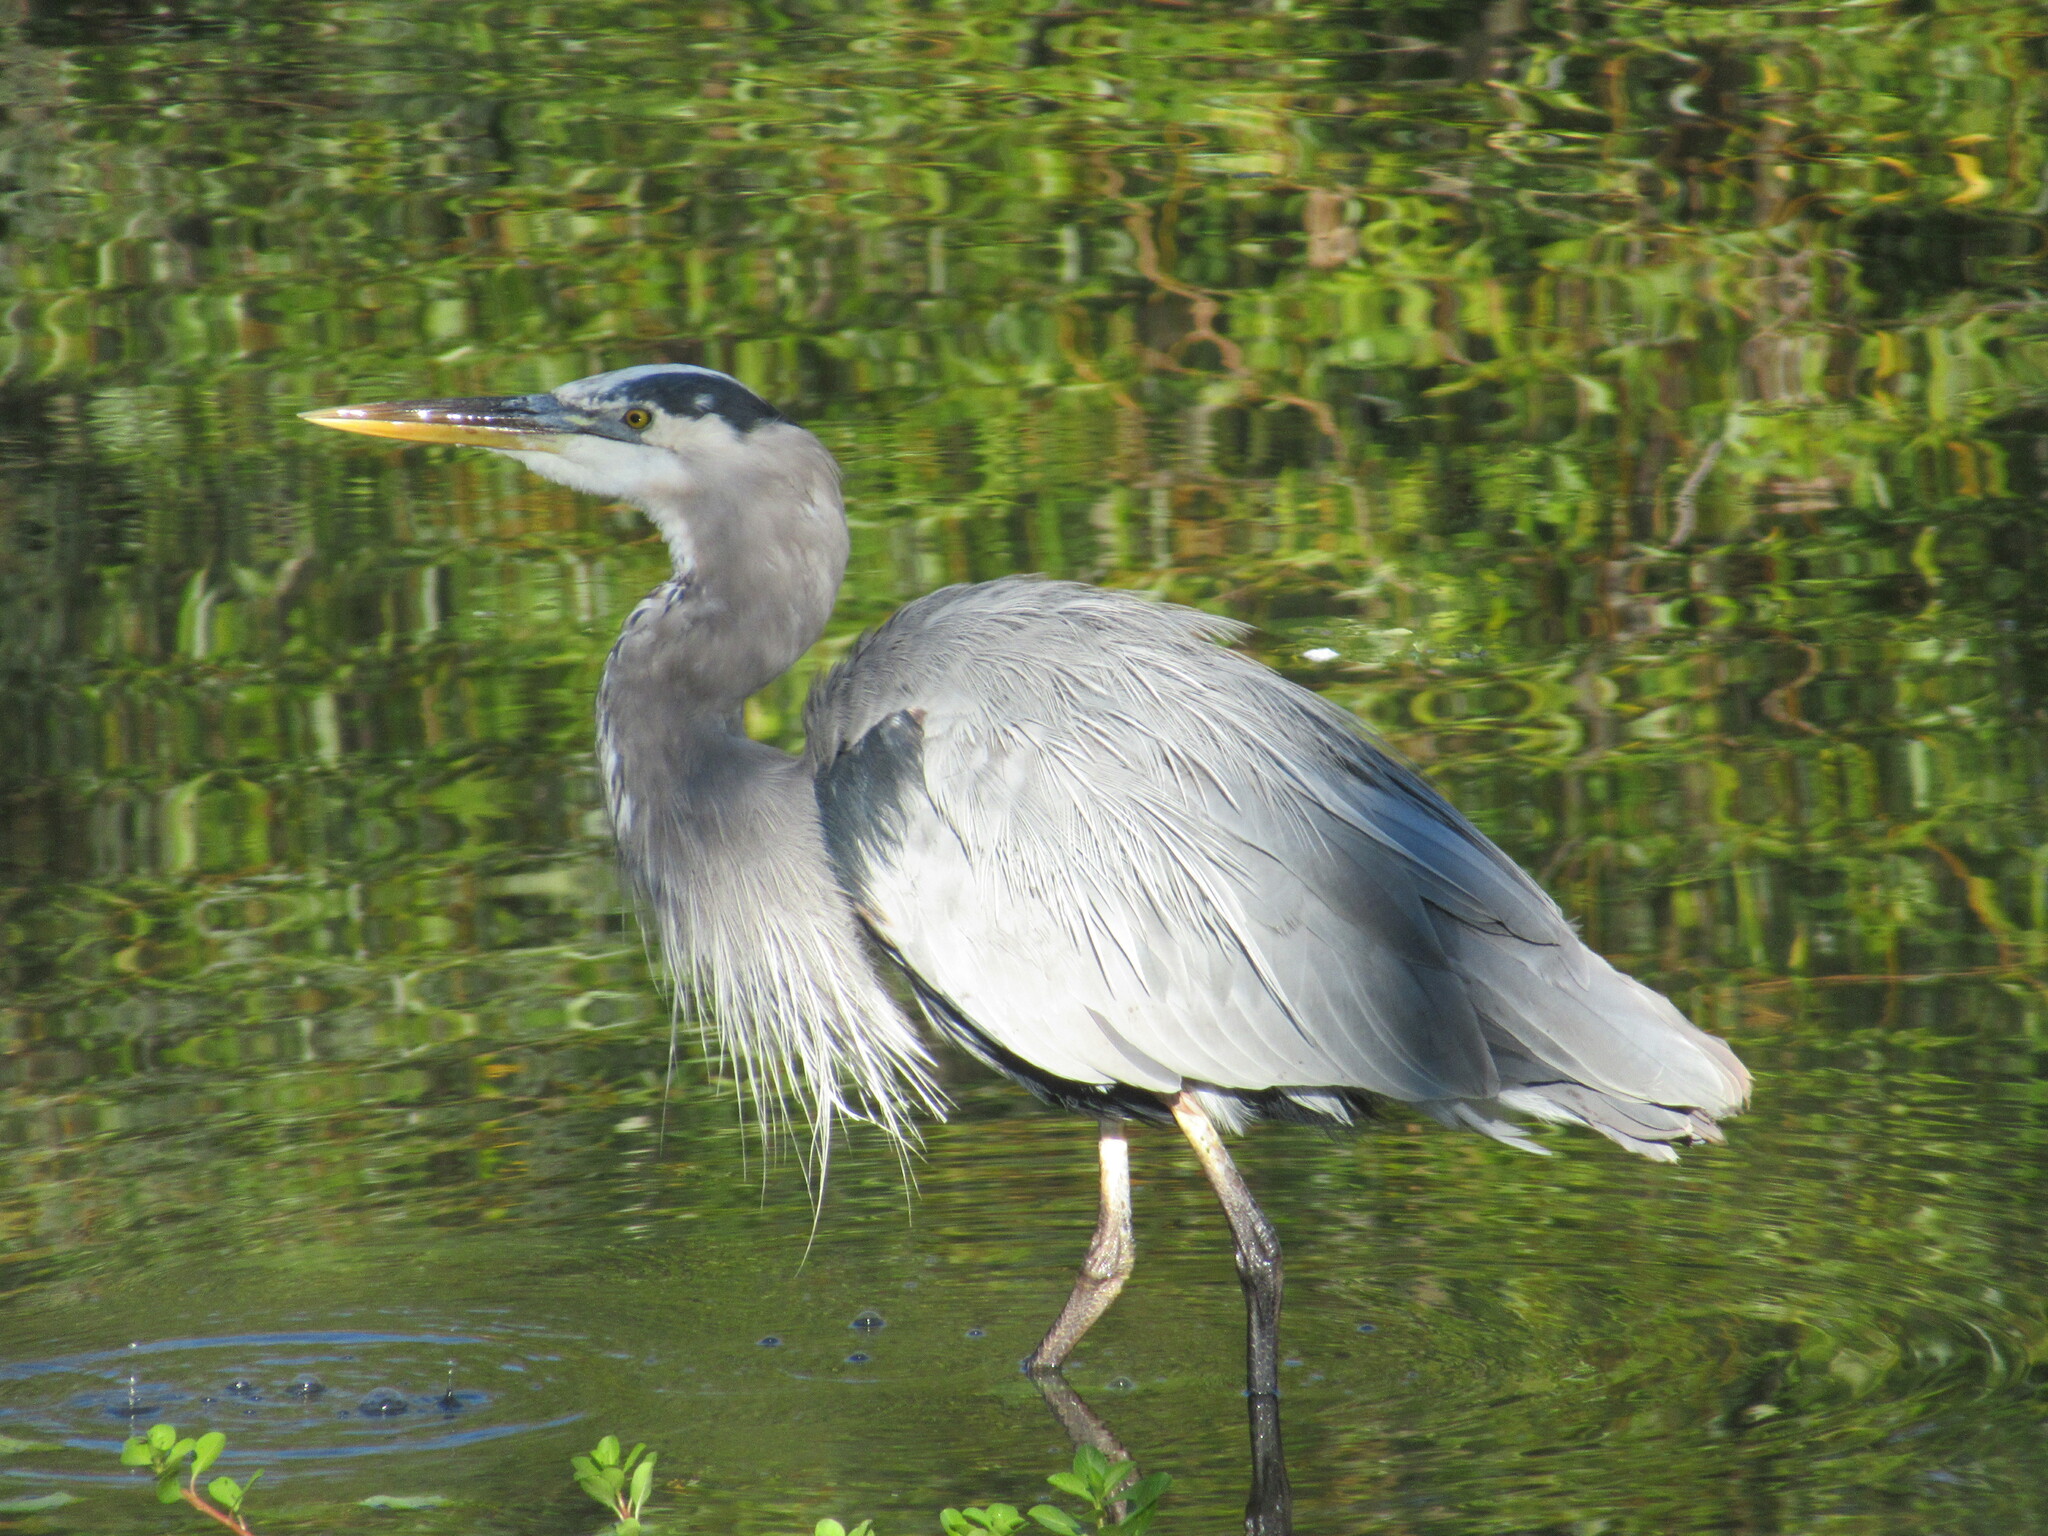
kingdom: Animalia
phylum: Chordata
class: Aves
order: Pelecaniformes
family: Ardeidae
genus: Ardea
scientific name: Ardea herodias
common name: Great blue heron
